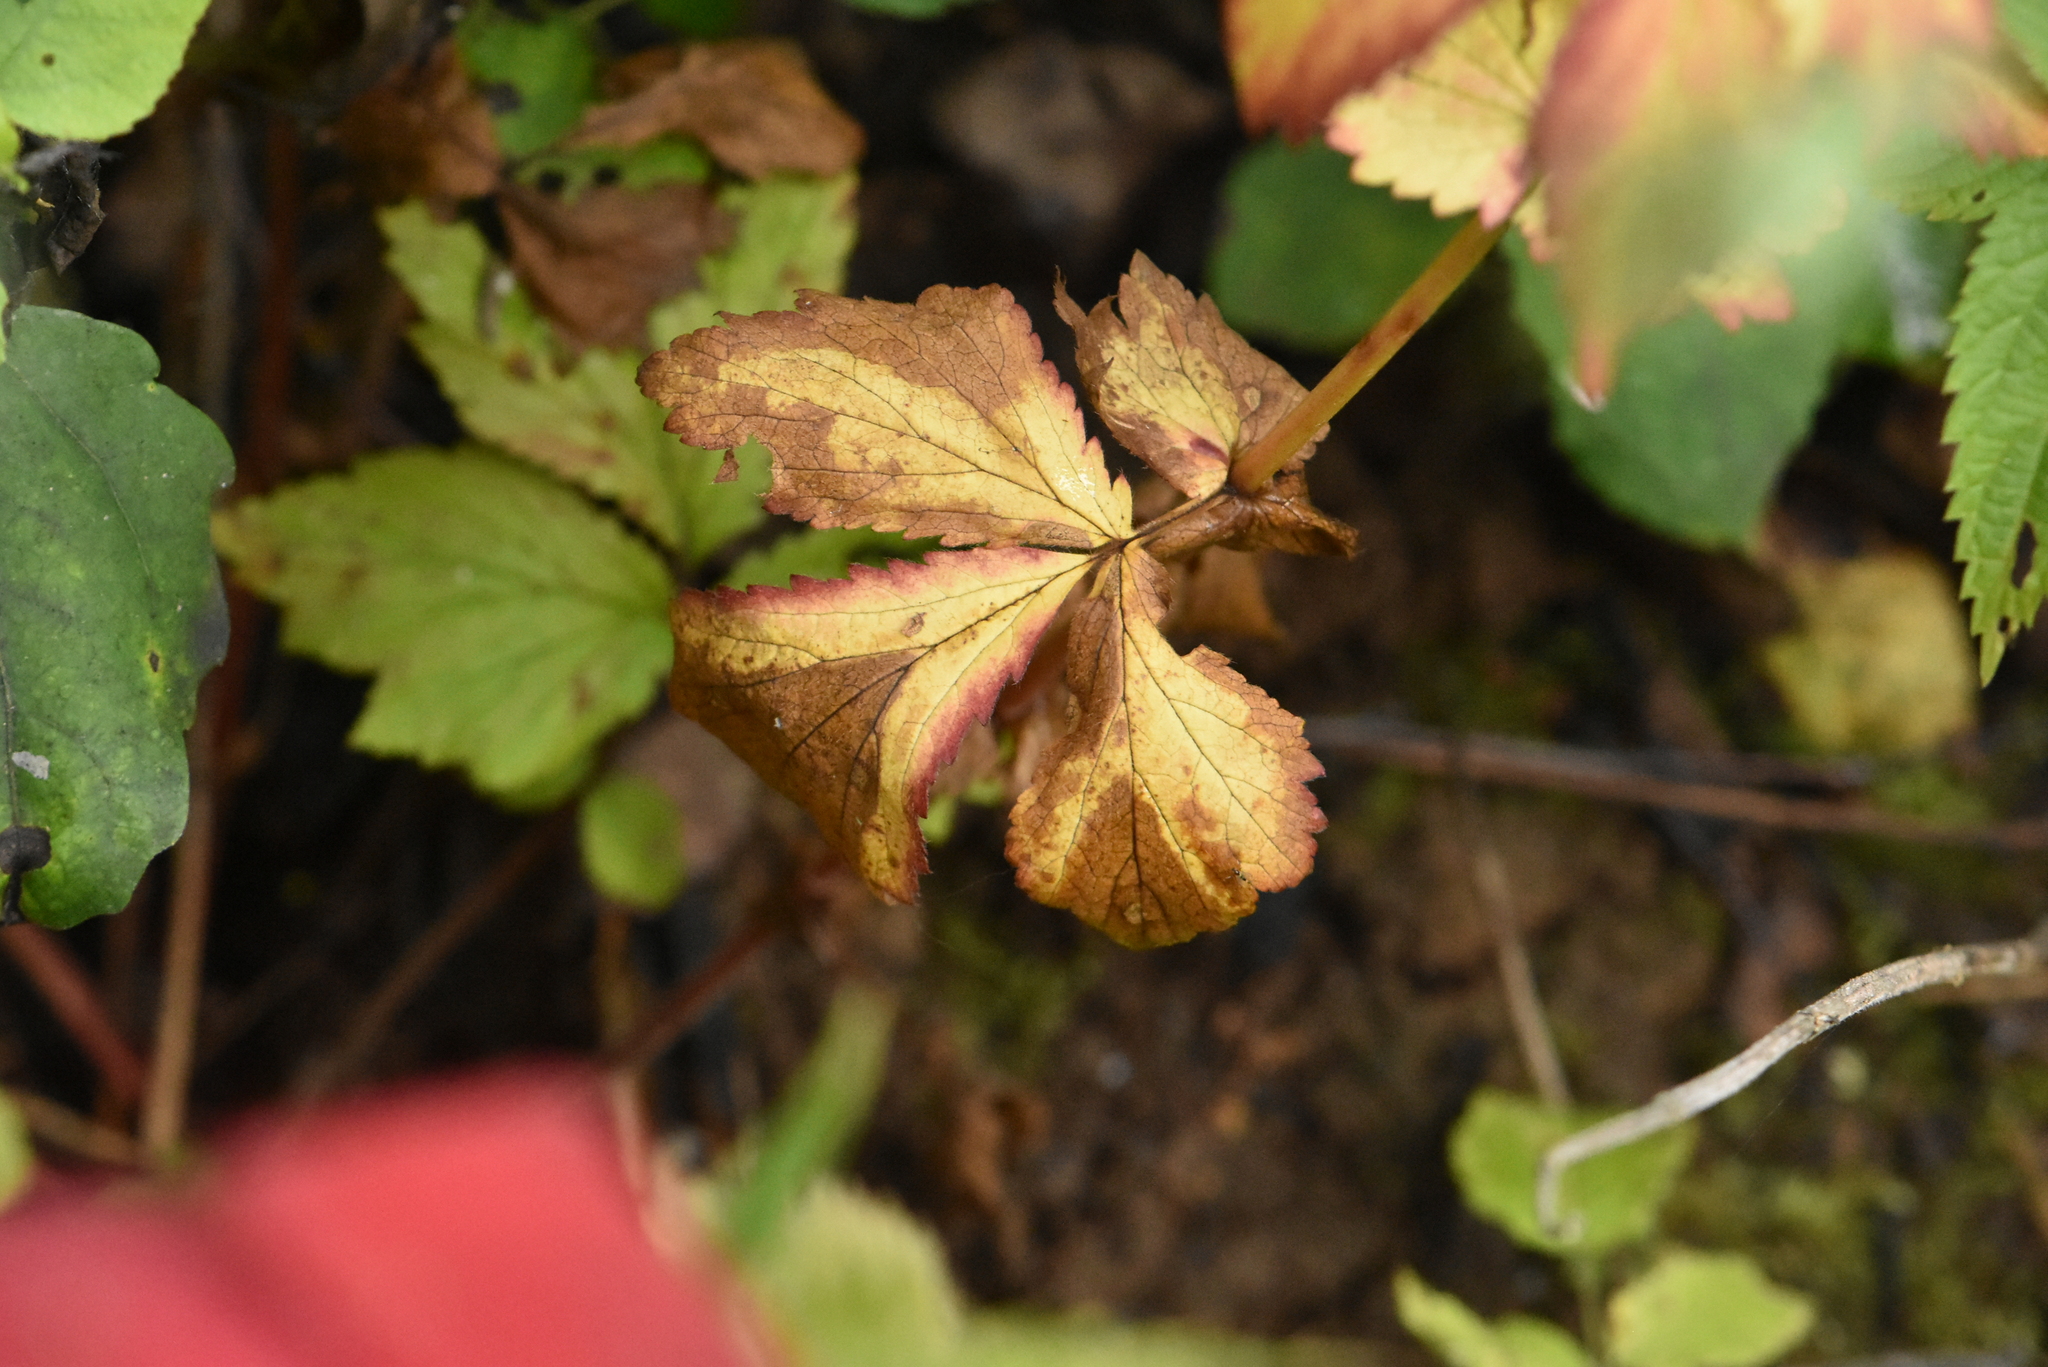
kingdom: Plantae
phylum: Tracheophyta
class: Magnoliopsida
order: Rosales
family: Rosaceae
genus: Geum
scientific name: Geum urbanum
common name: Wood avens
